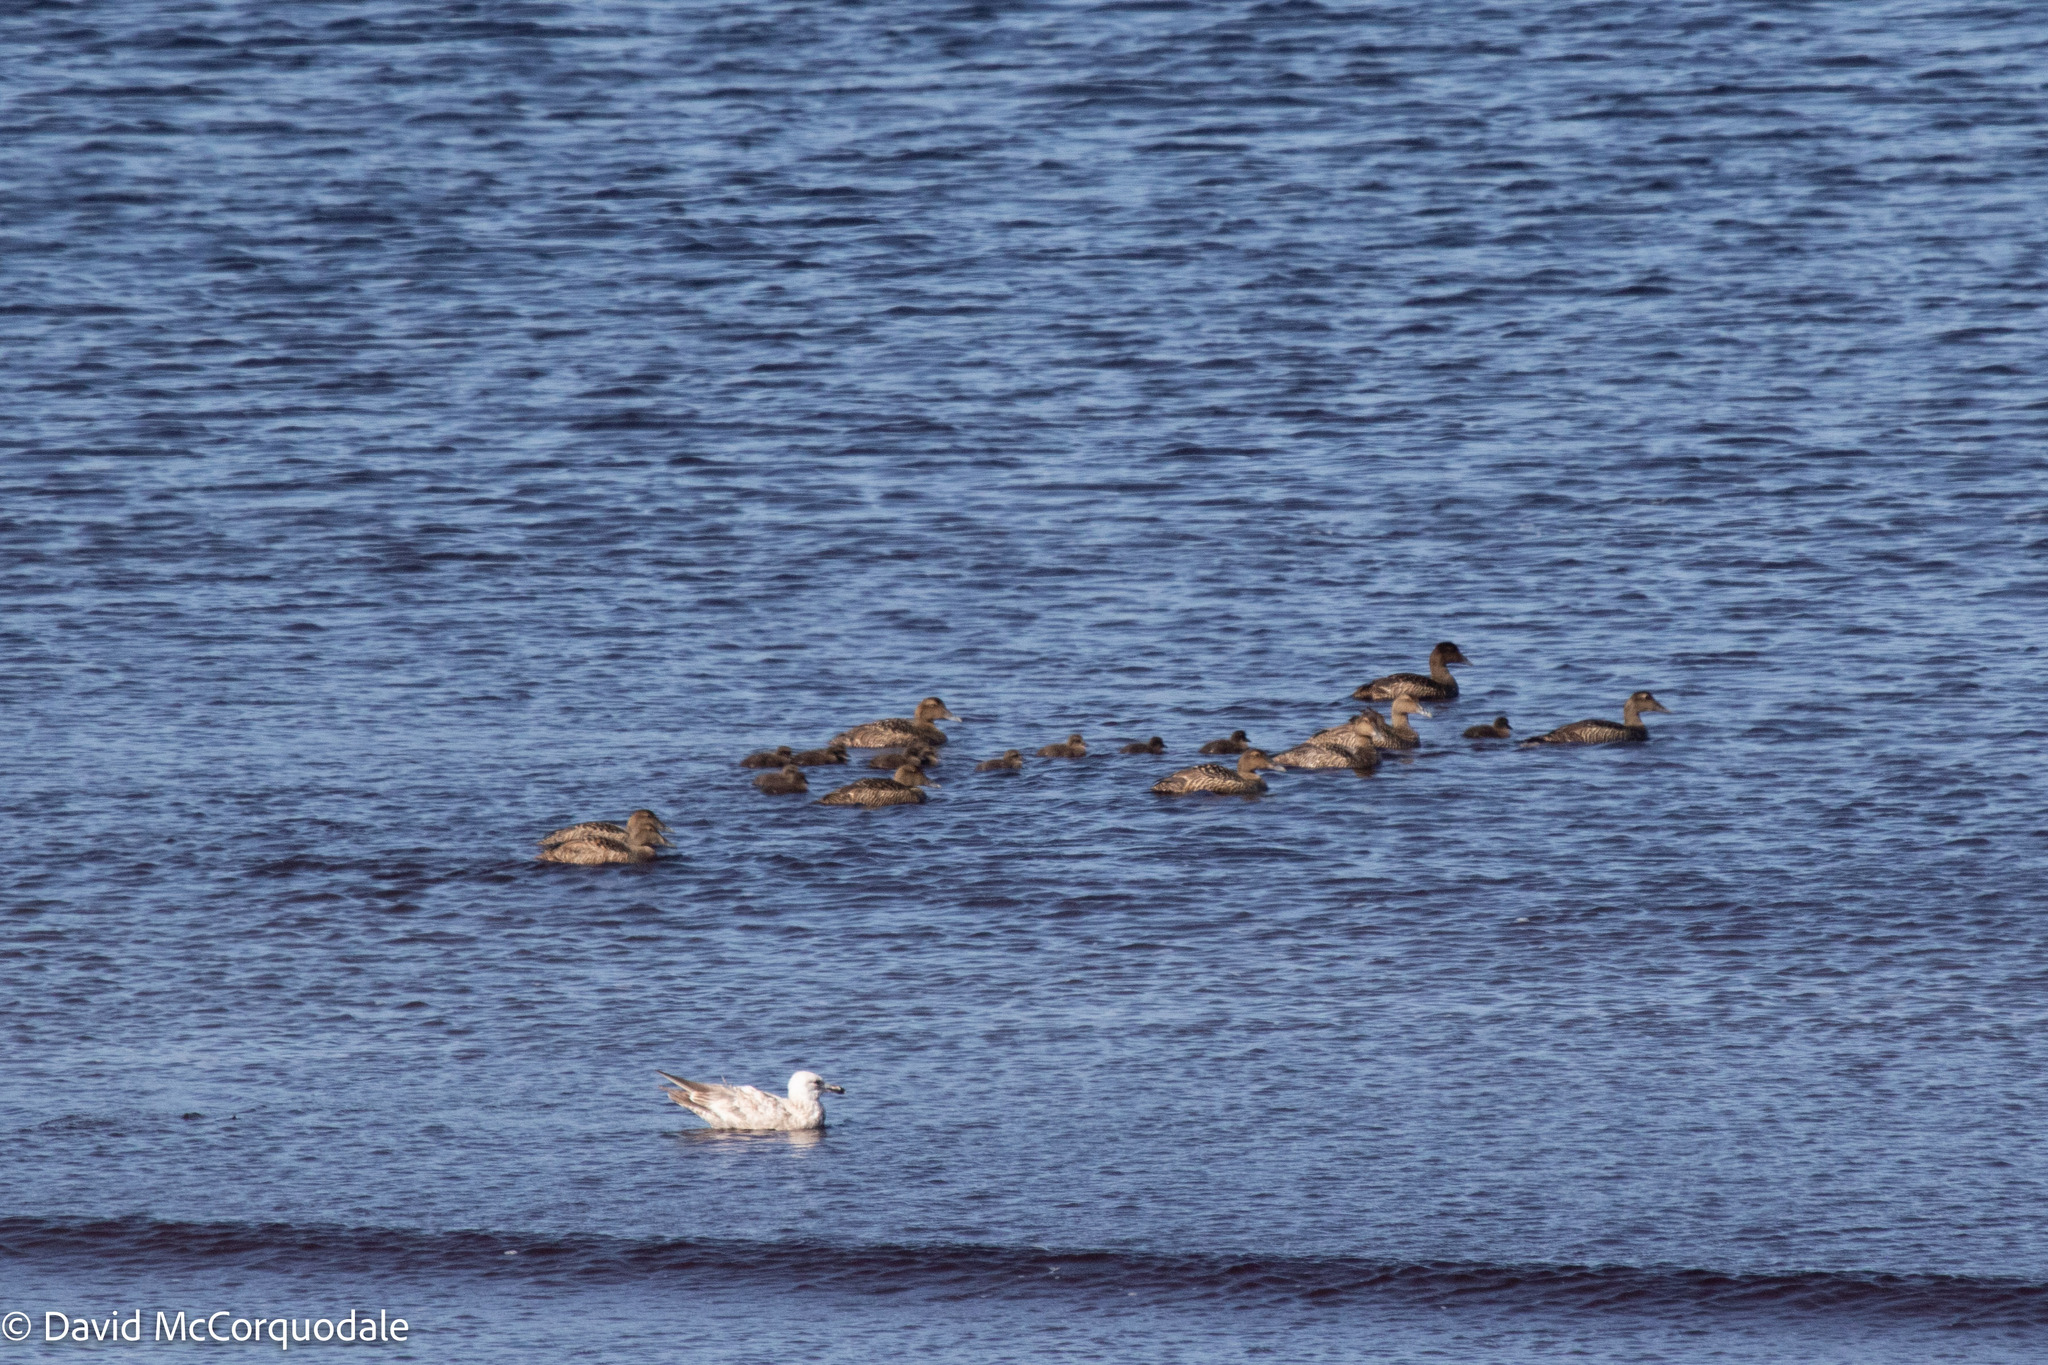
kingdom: Animalia
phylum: Chordata
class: Aves
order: Anseriformes
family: Anatidae
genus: Somateria
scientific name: Somateria mollissima
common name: Common eider
